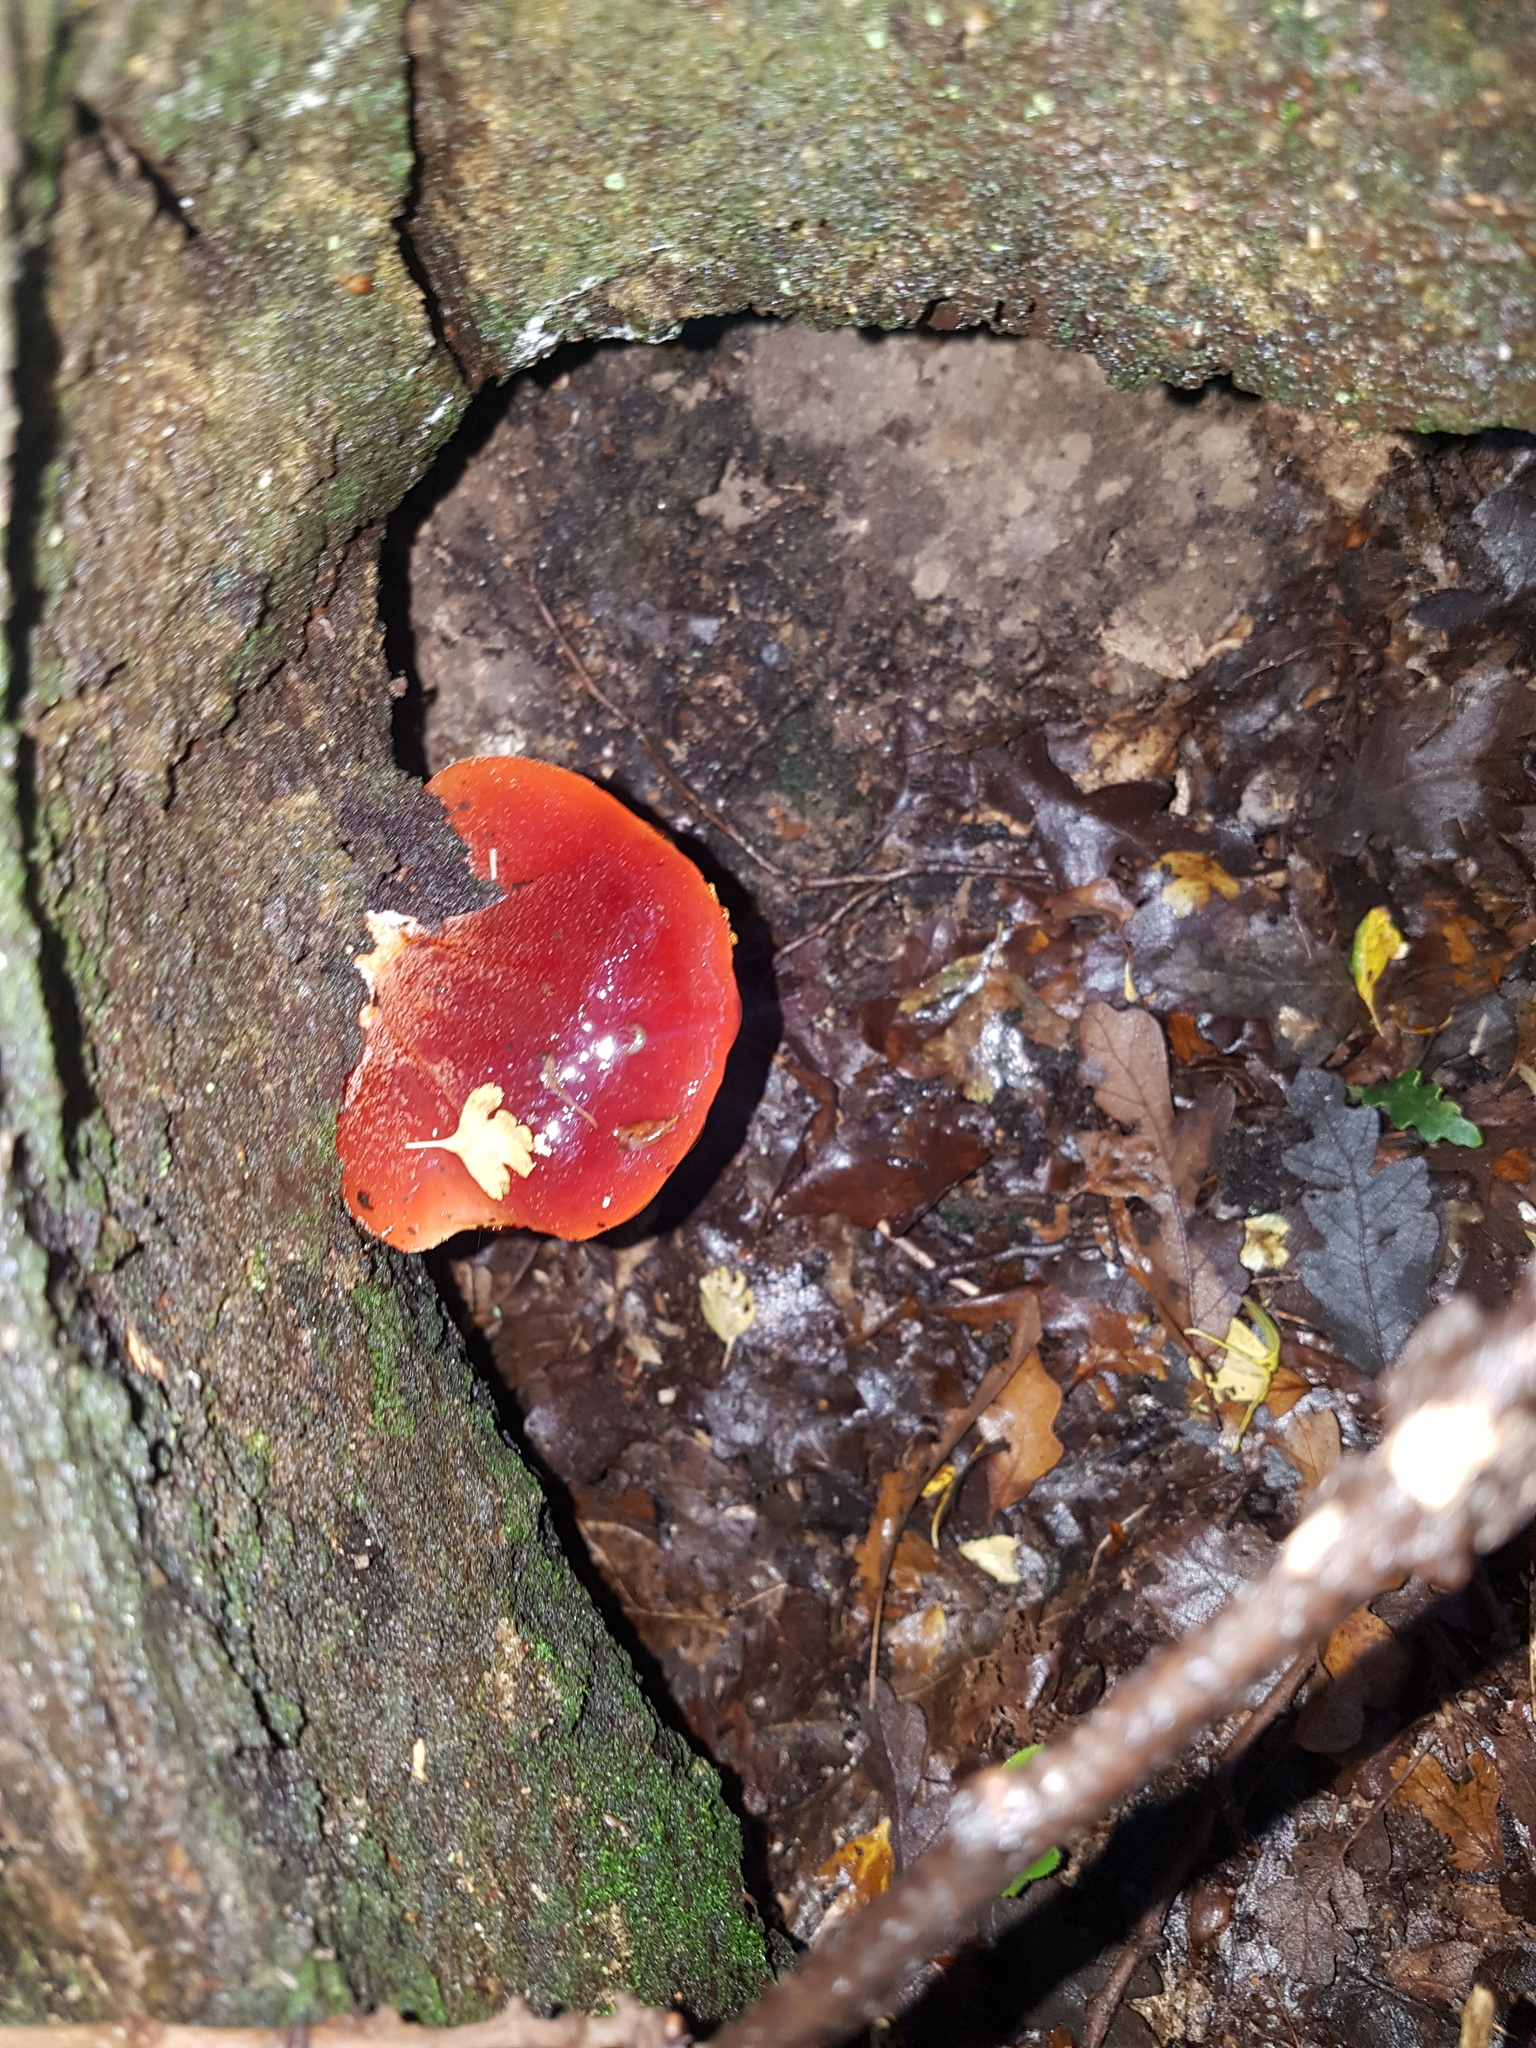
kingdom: Fungi
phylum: Basidiomycota
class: Agaricomycetes
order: Agaricales
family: Fistulinaceae
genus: Fistulina
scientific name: Fistulina hepatica
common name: Beef-steak fungus
